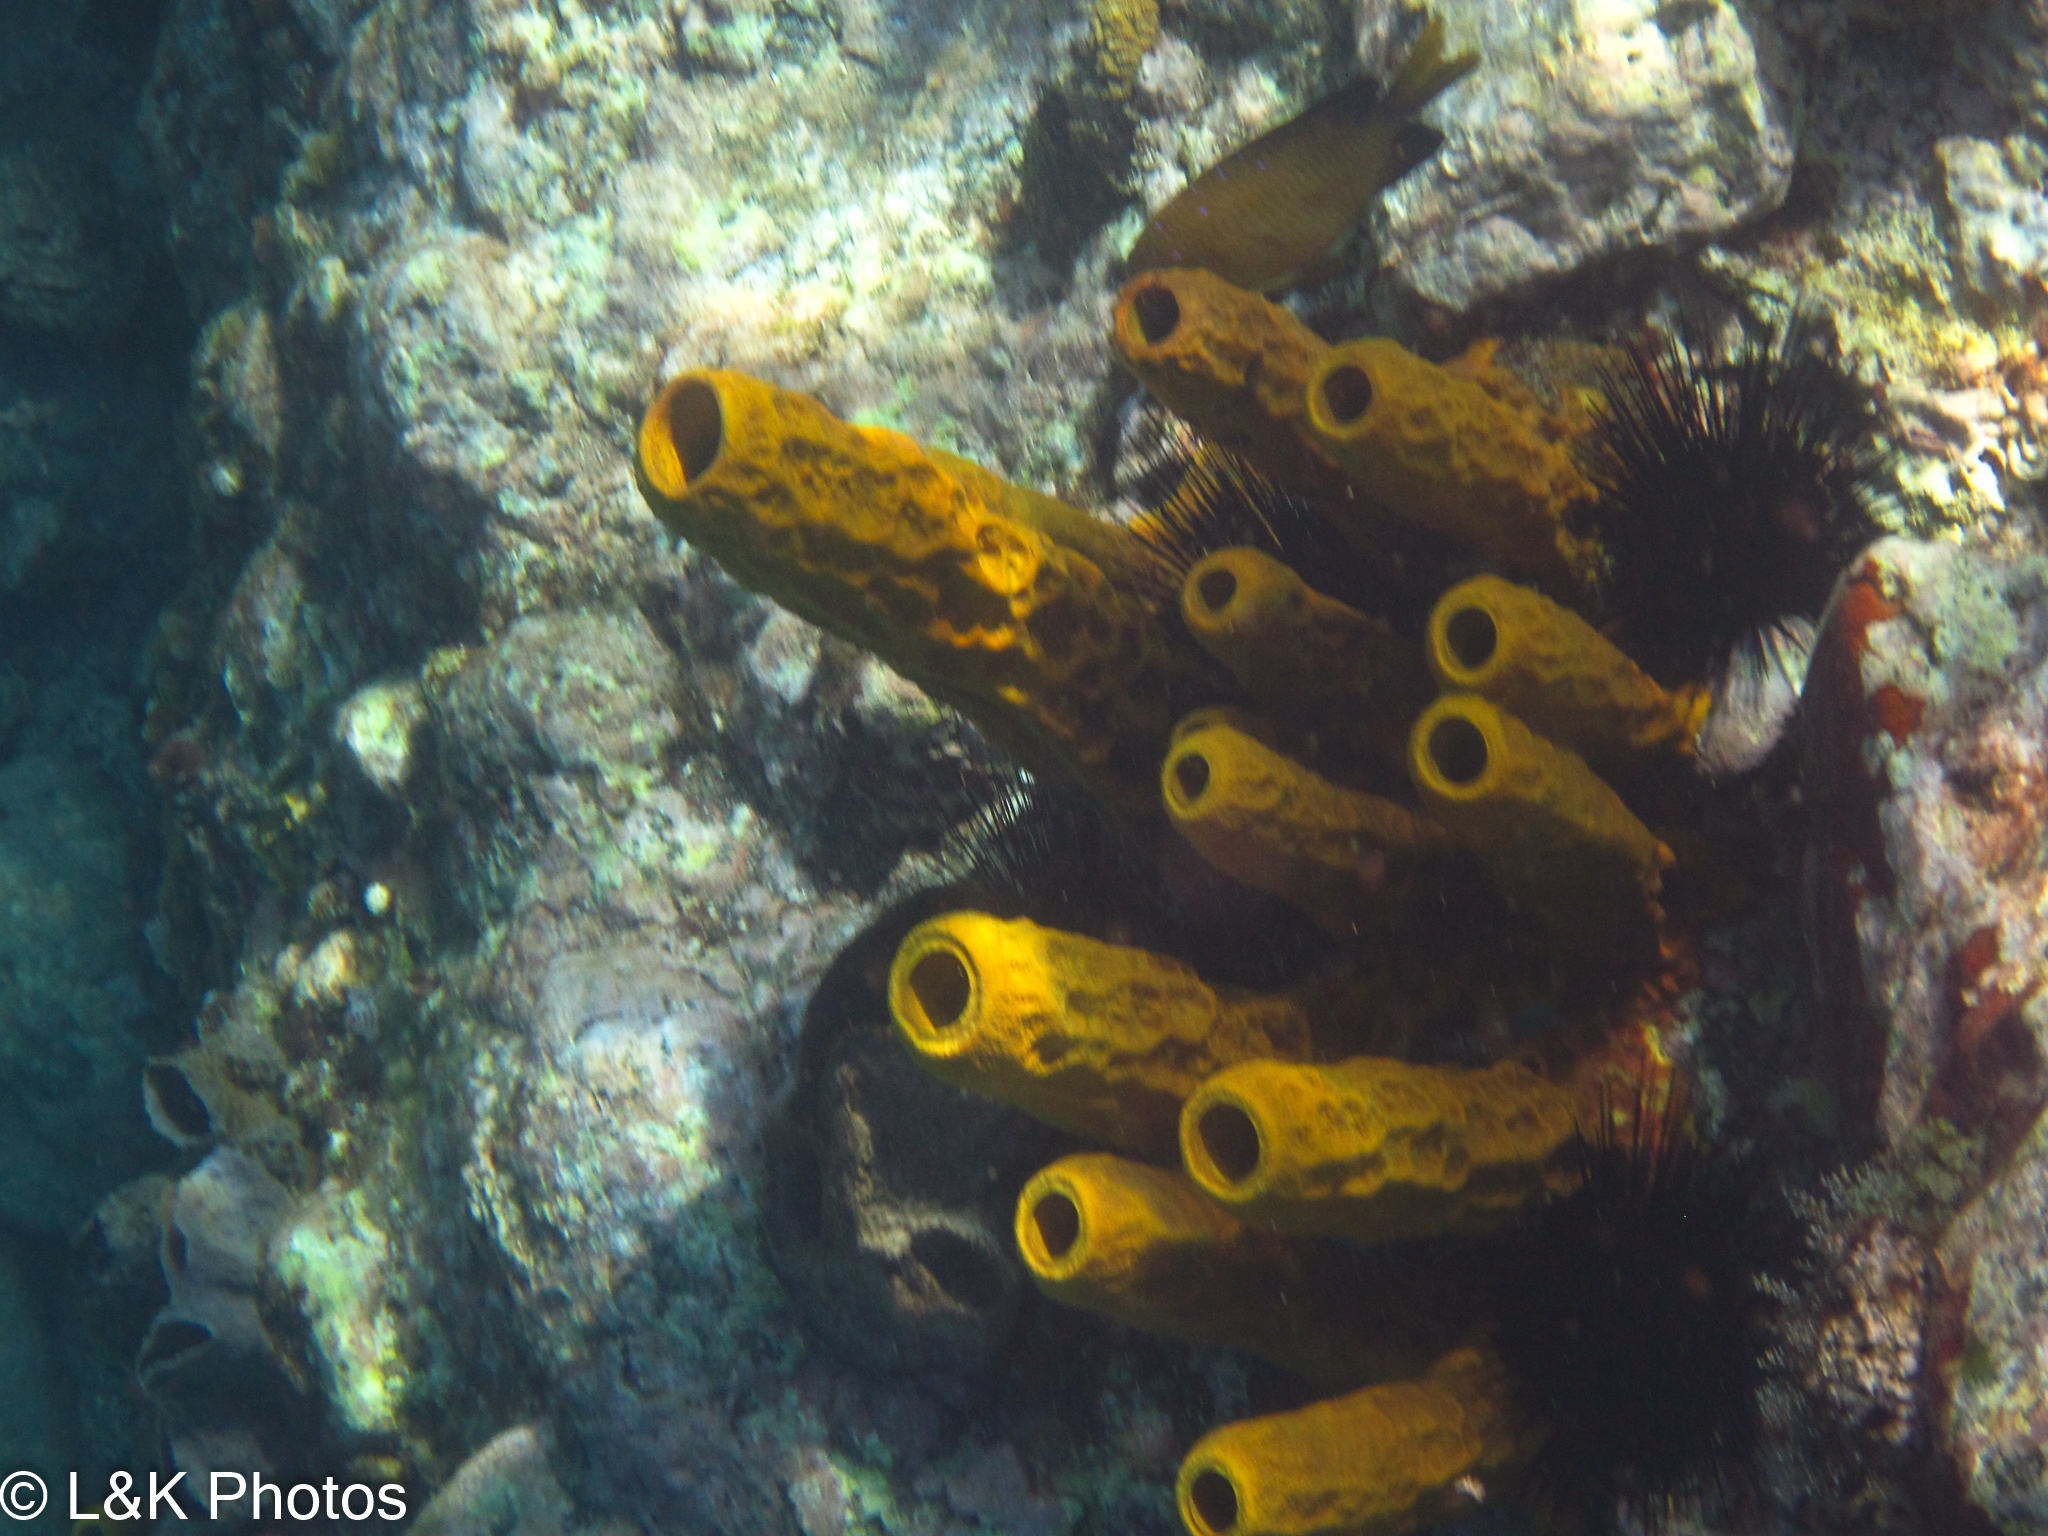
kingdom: Animalia
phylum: Porifera
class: Demospongiae
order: Verongiida
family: Aplysinidae
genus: Aplysina
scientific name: Aplysina fistularis
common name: Candle sponge
